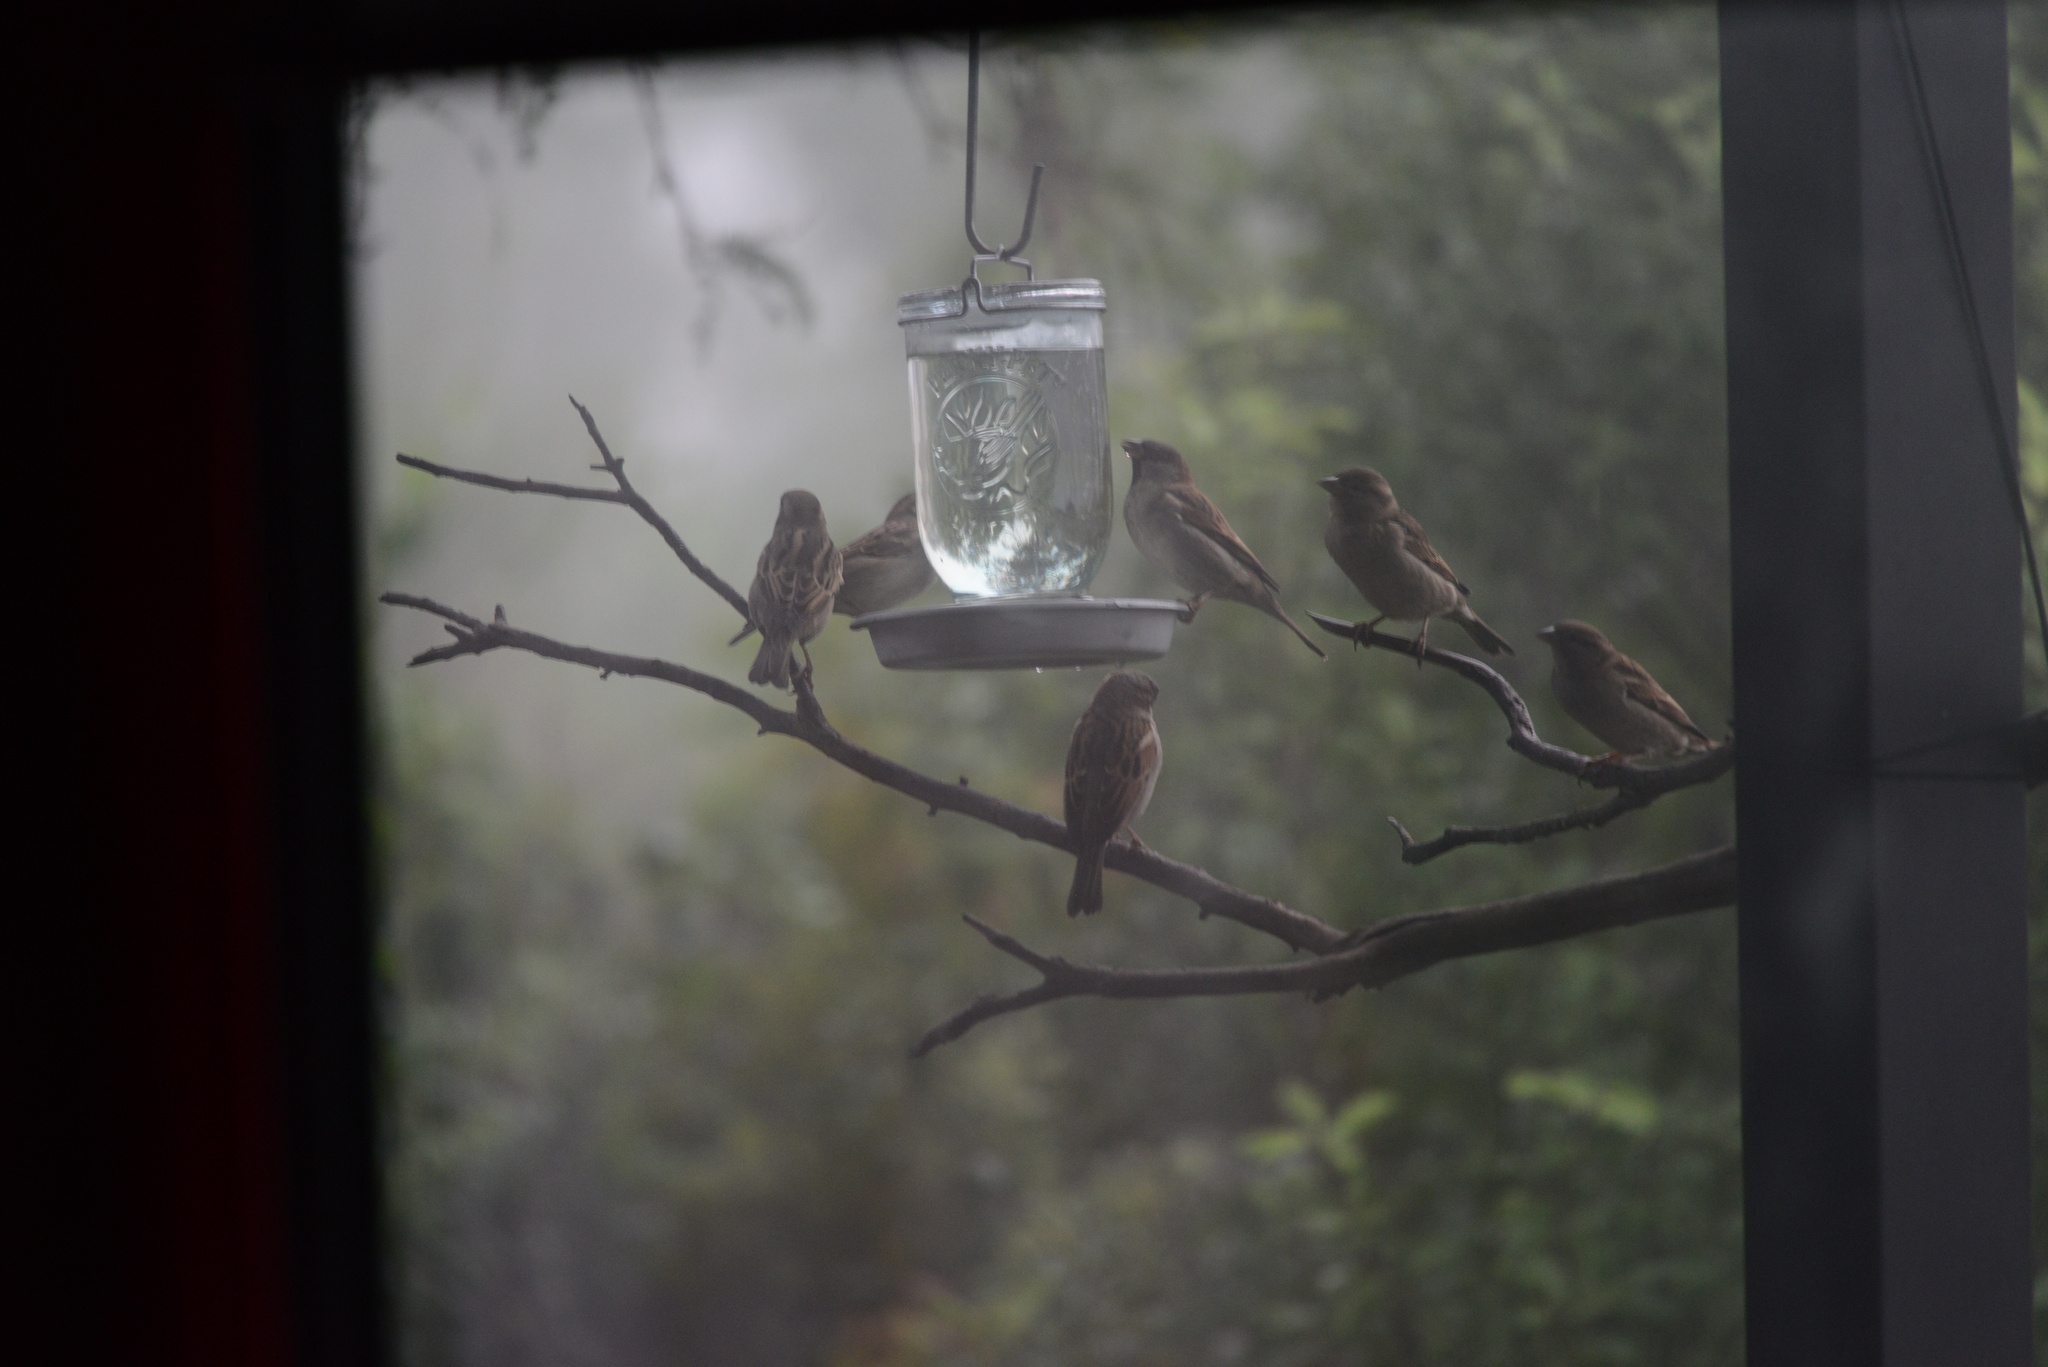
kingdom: Animalia
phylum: Chordata
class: Aves
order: Passeriformes
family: Passeridae
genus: Passer
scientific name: Passer domesticus
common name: House sparrow
